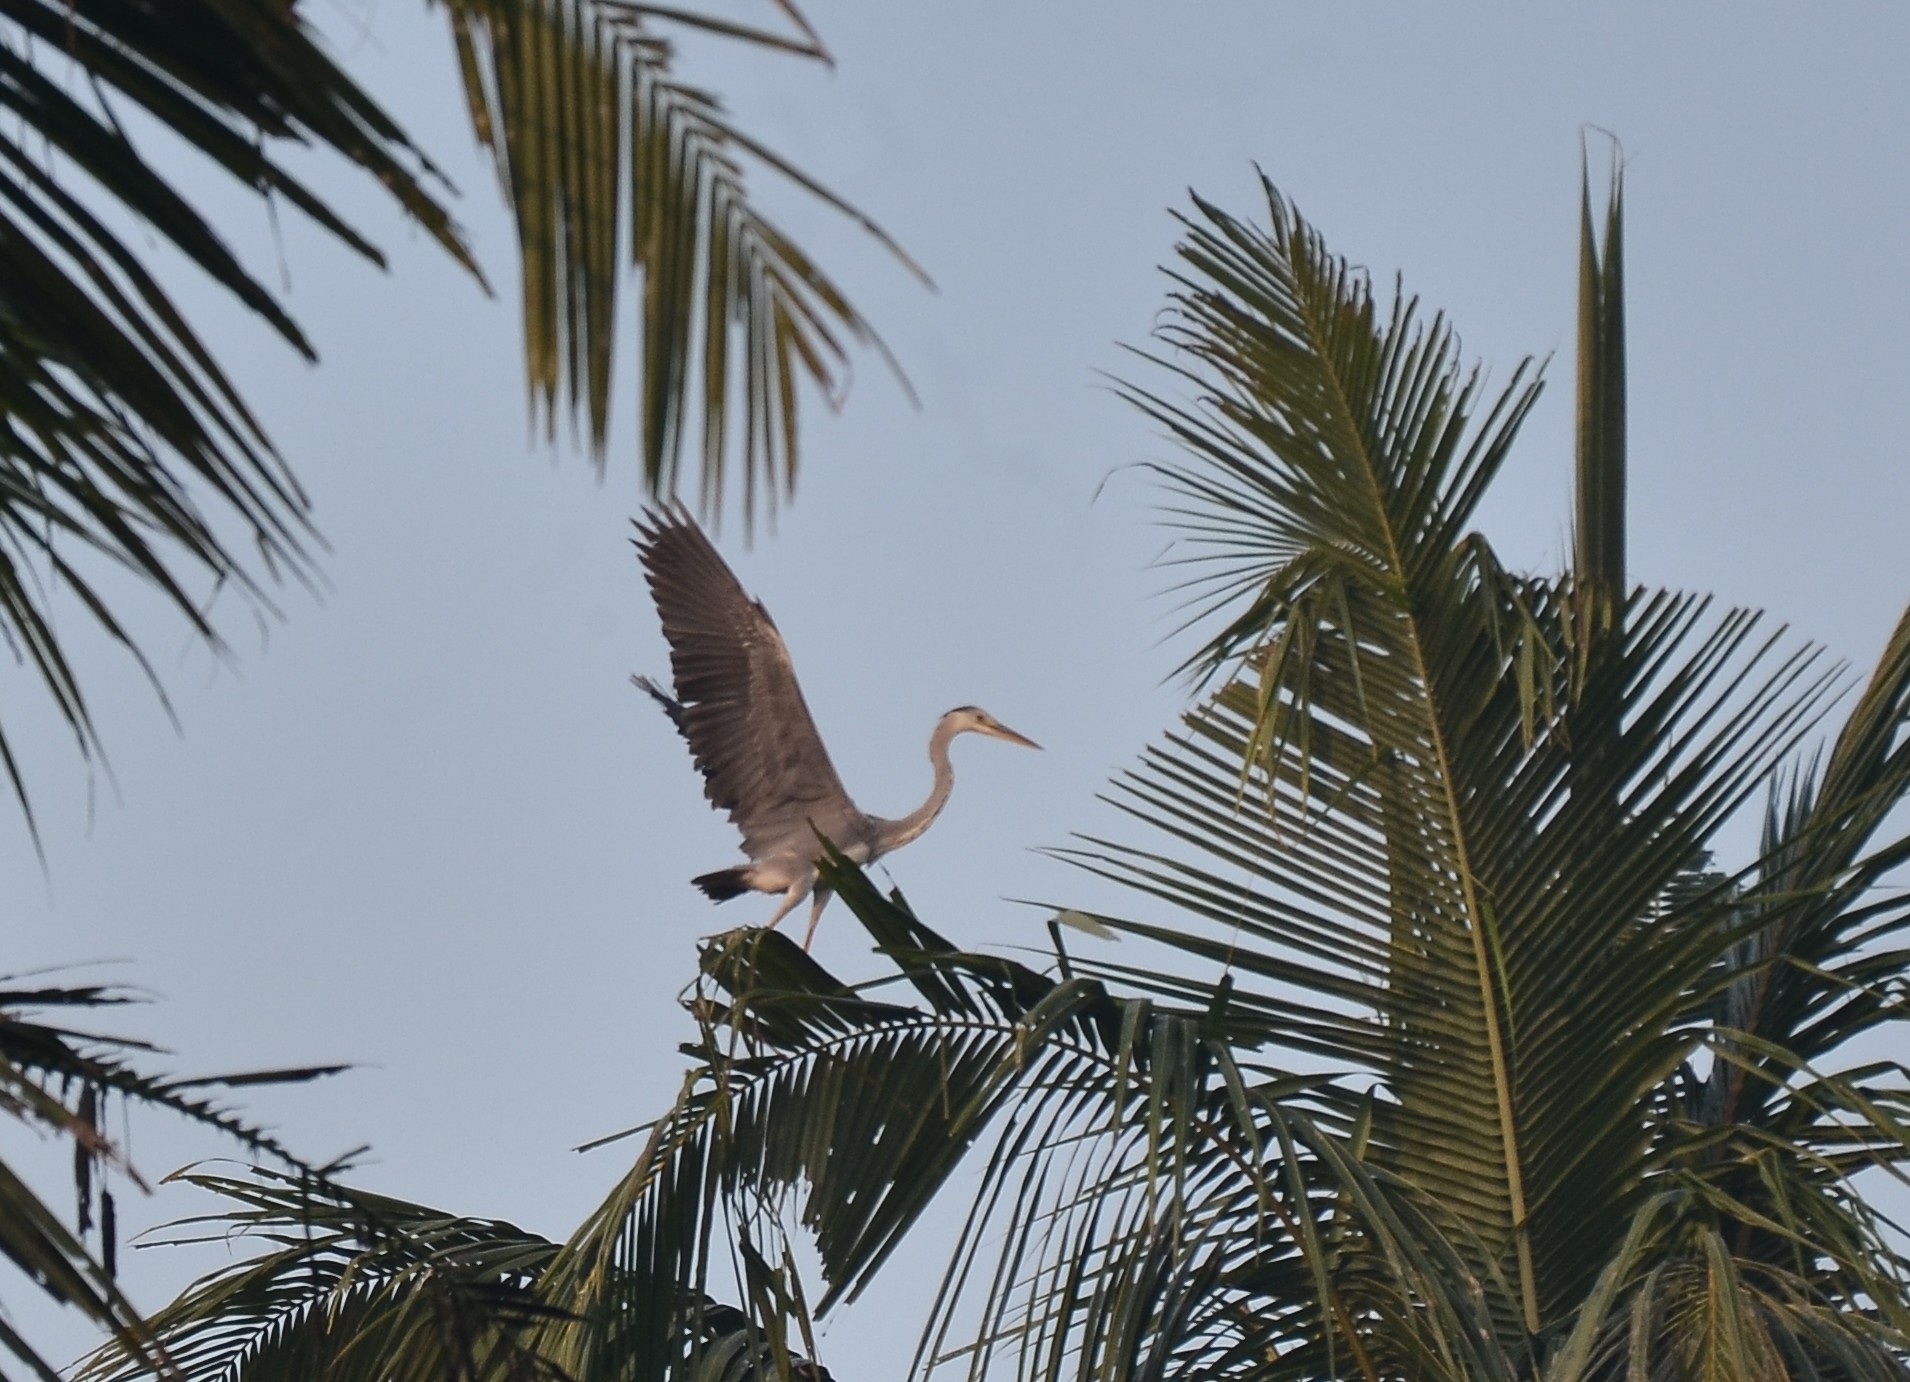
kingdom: Animalia
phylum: Chordata
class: Aves
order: Pelecaniformes
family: Ardeidae
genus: Ardea
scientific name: Ardea cinerea
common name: Grey heron
